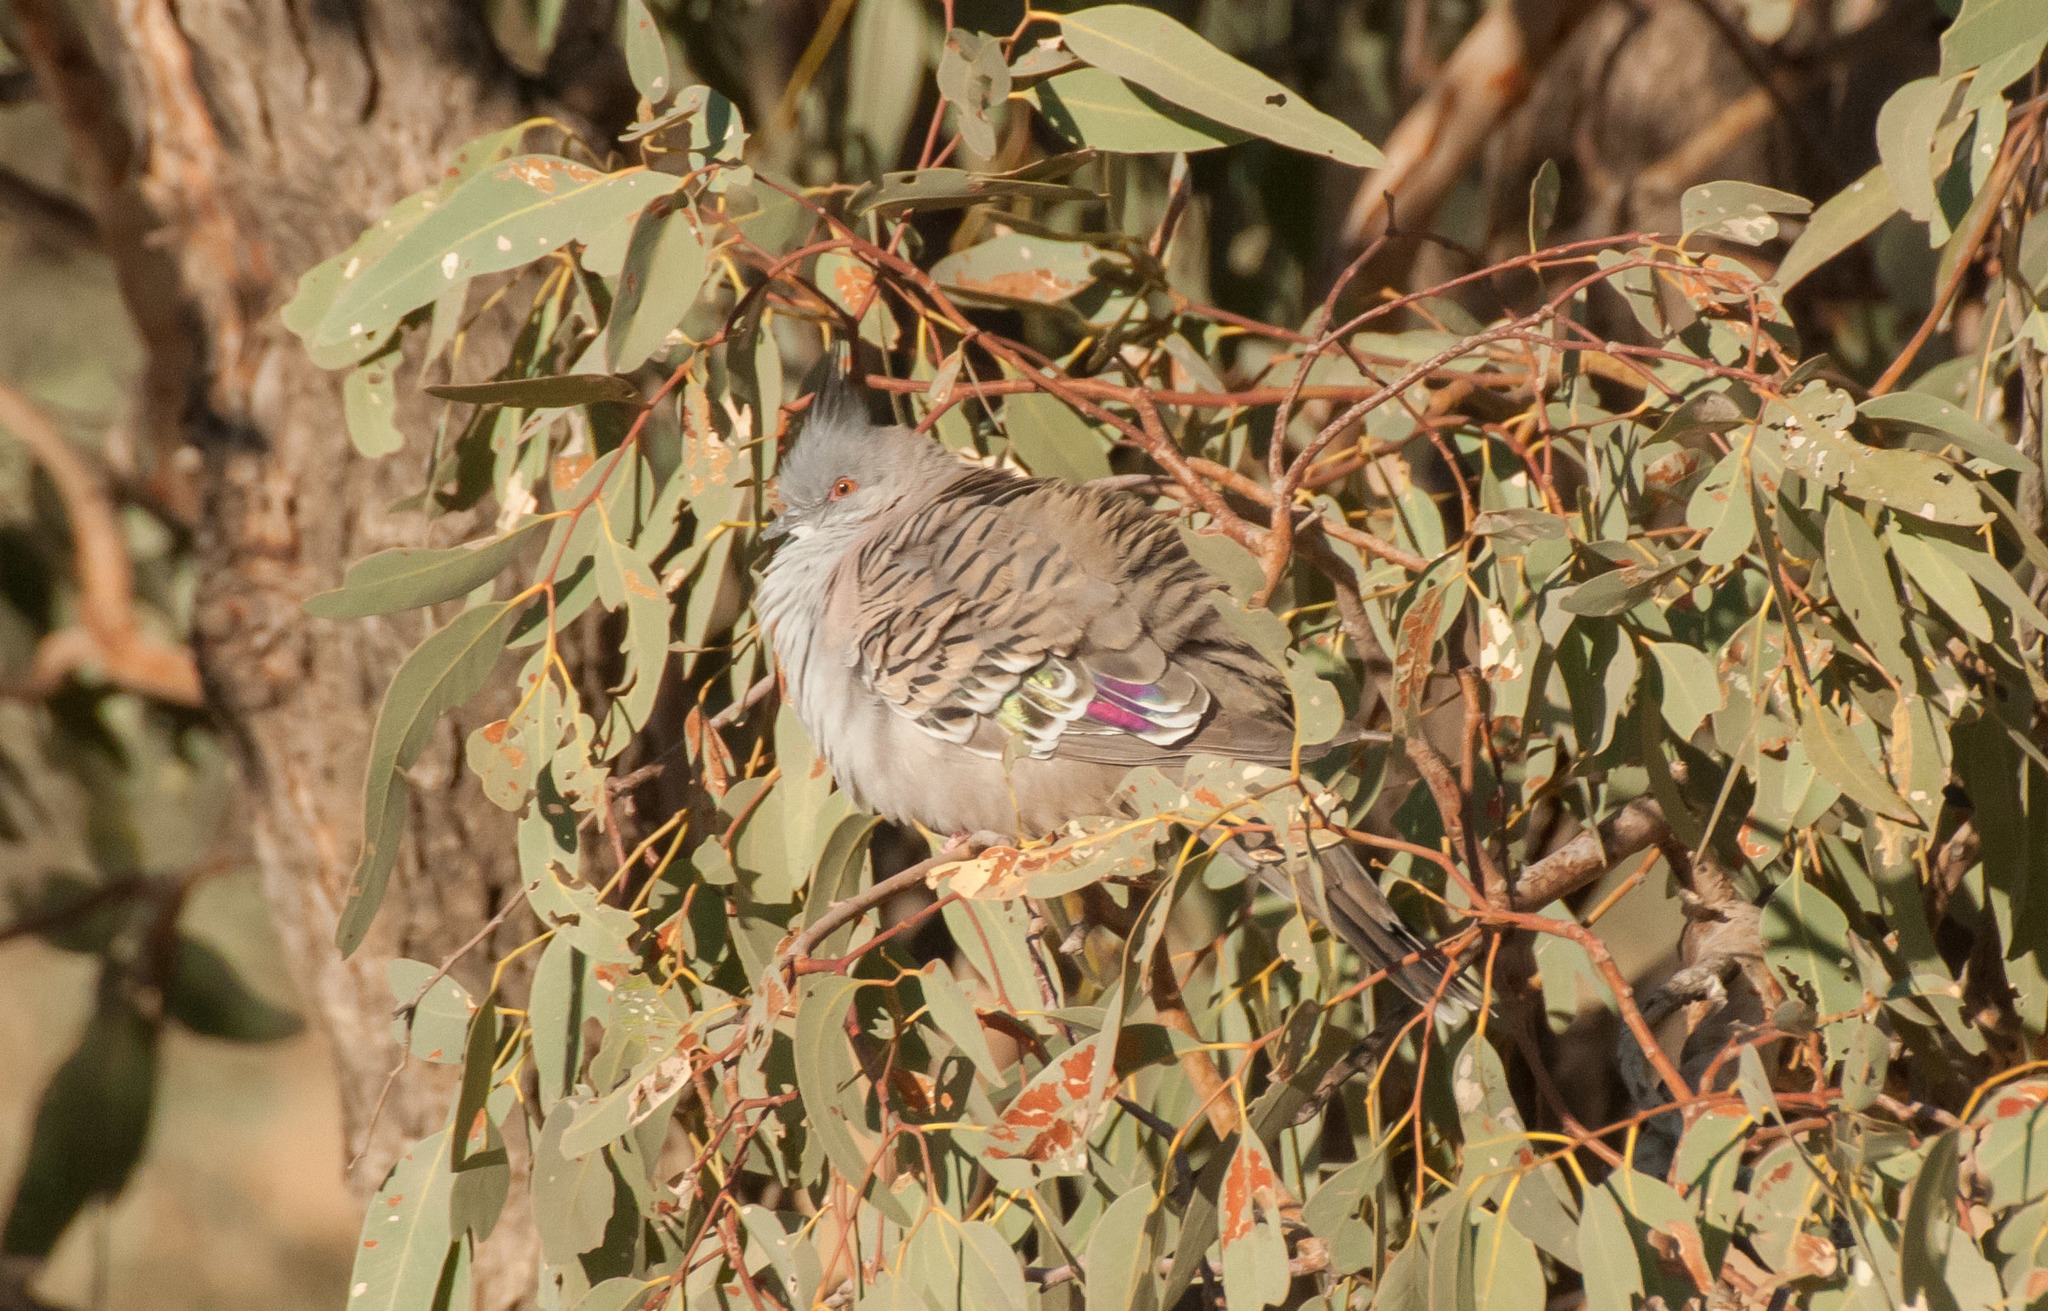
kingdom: Animalia
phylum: Chordata
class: Aves
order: Columbiformes
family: Columbidae
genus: Ocyphaps
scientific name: Ocyphaps lophotes
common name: Crested pigeon
